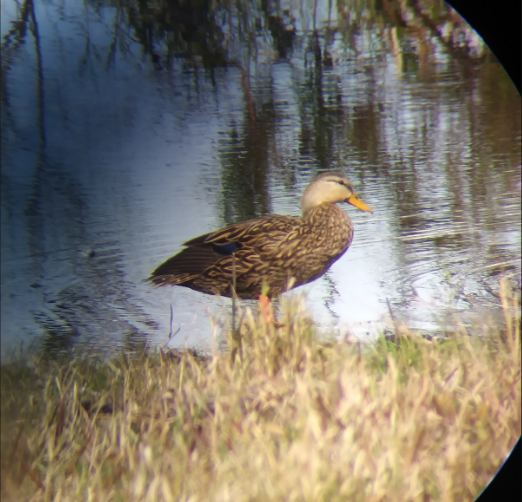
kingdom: Animalia
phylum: Chordata
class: Aves
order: Anseriformes
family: Anatidae
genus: Anas
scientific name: Anas fulvigula
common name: Mottled duck
